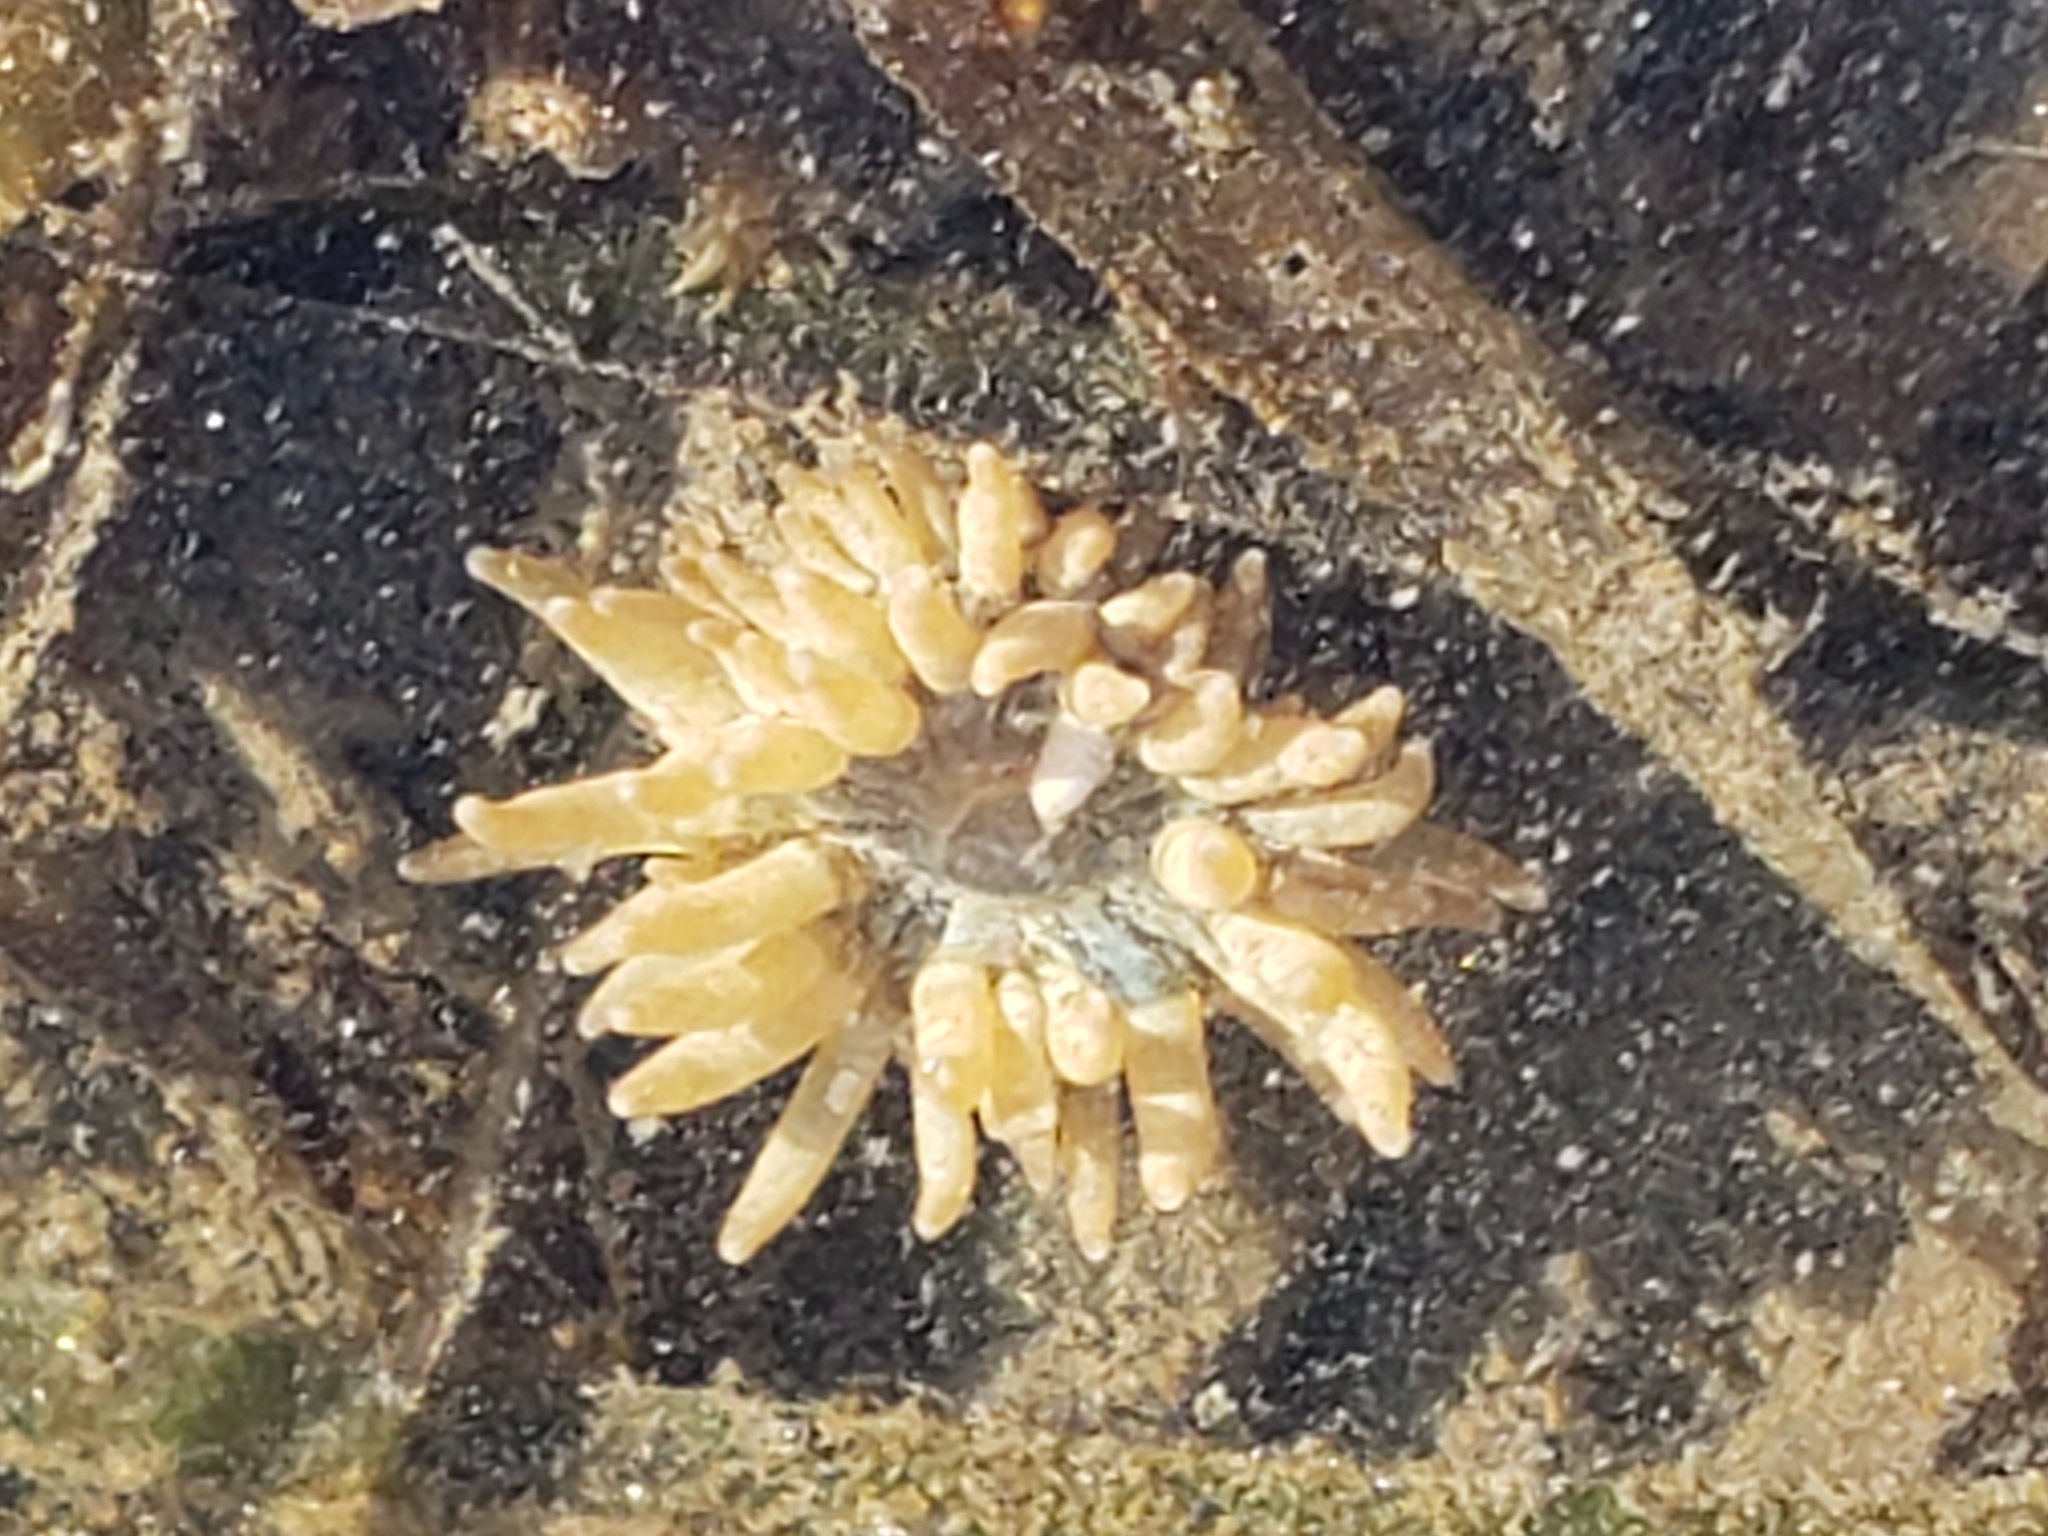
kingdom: Animalia
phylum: Cnidaria
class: Anthozoa
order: Actiniaria
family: Aiptasiidae
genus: Exaiptasia
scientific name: Exaiptasia diaphana
